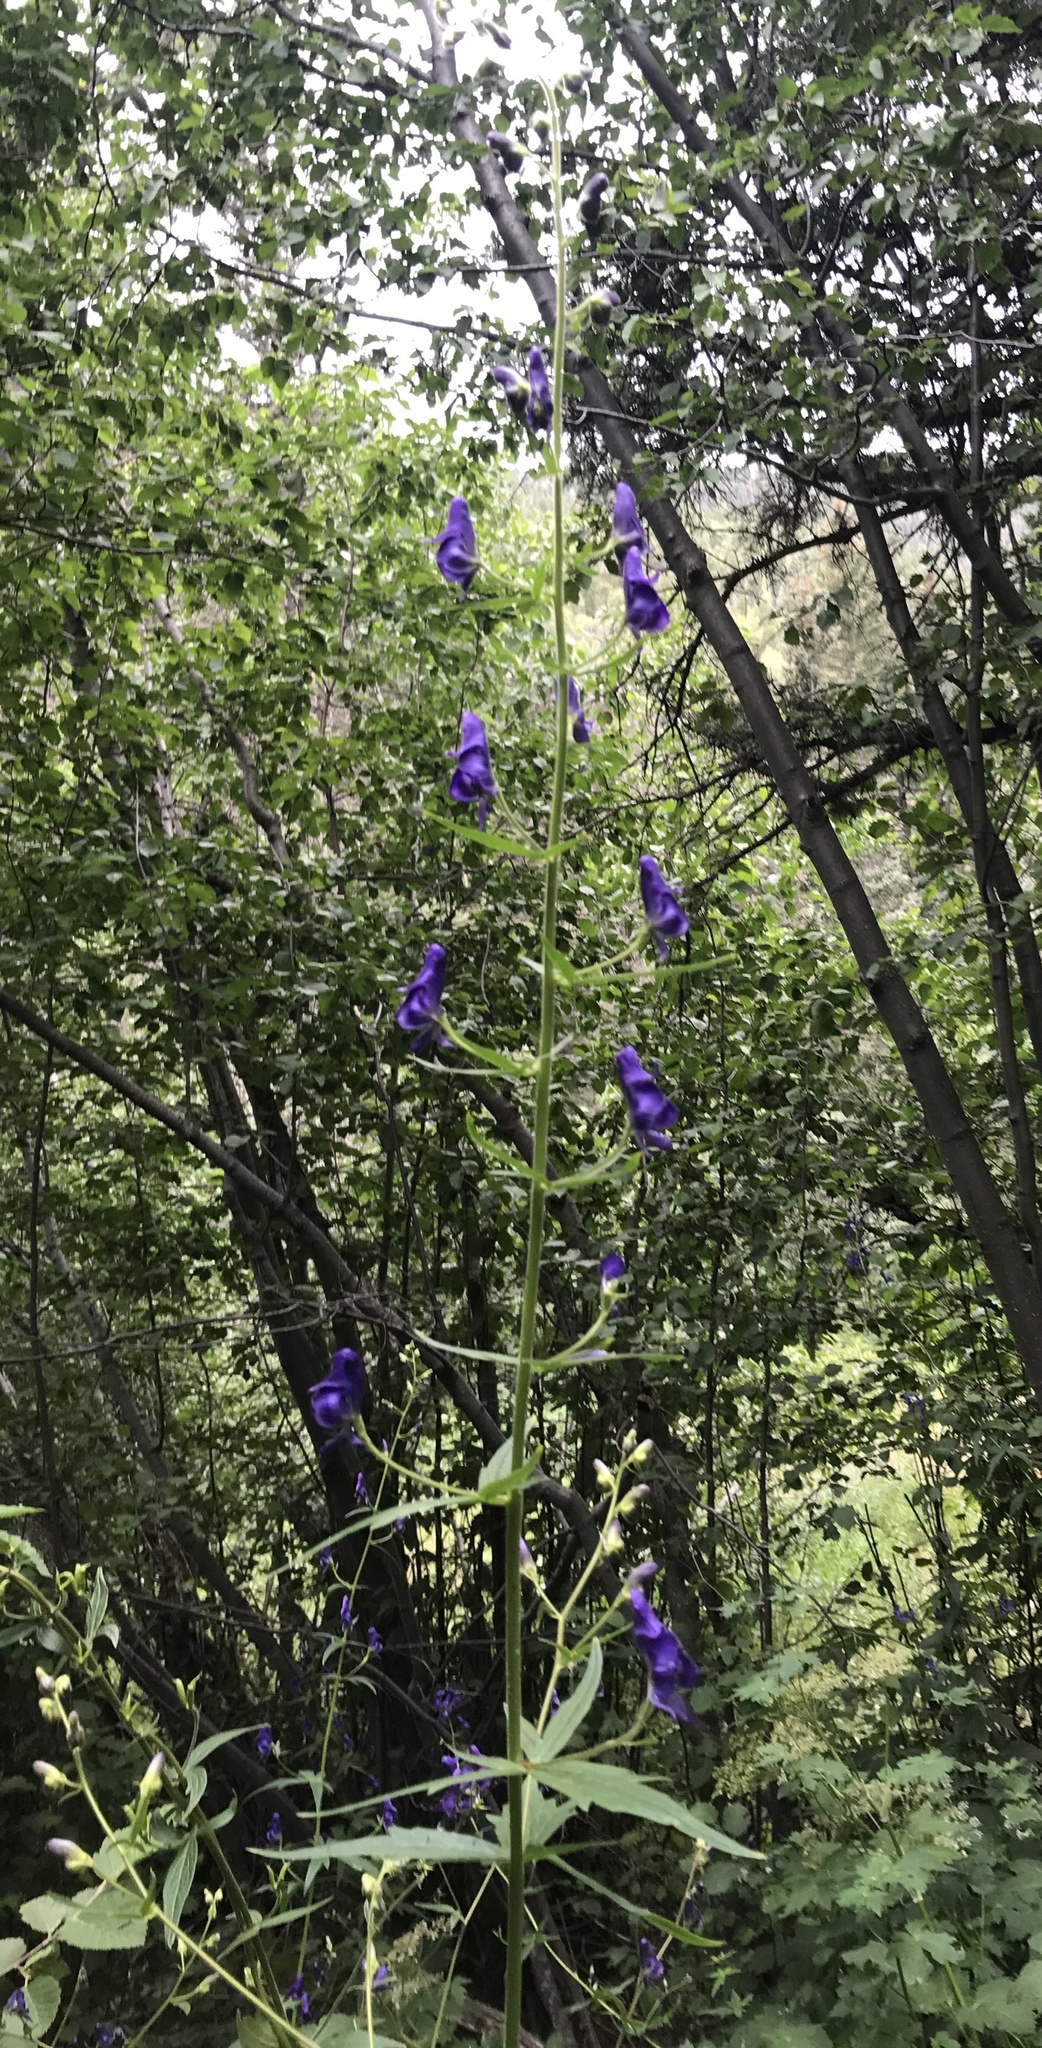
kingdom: Plantae
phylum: Tracheophyta
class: Magnoliopsida
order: Ranunculales
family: Ranunculaceae
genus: Aconitum
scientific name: Aconitum columbianum
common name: Columbia aconite
